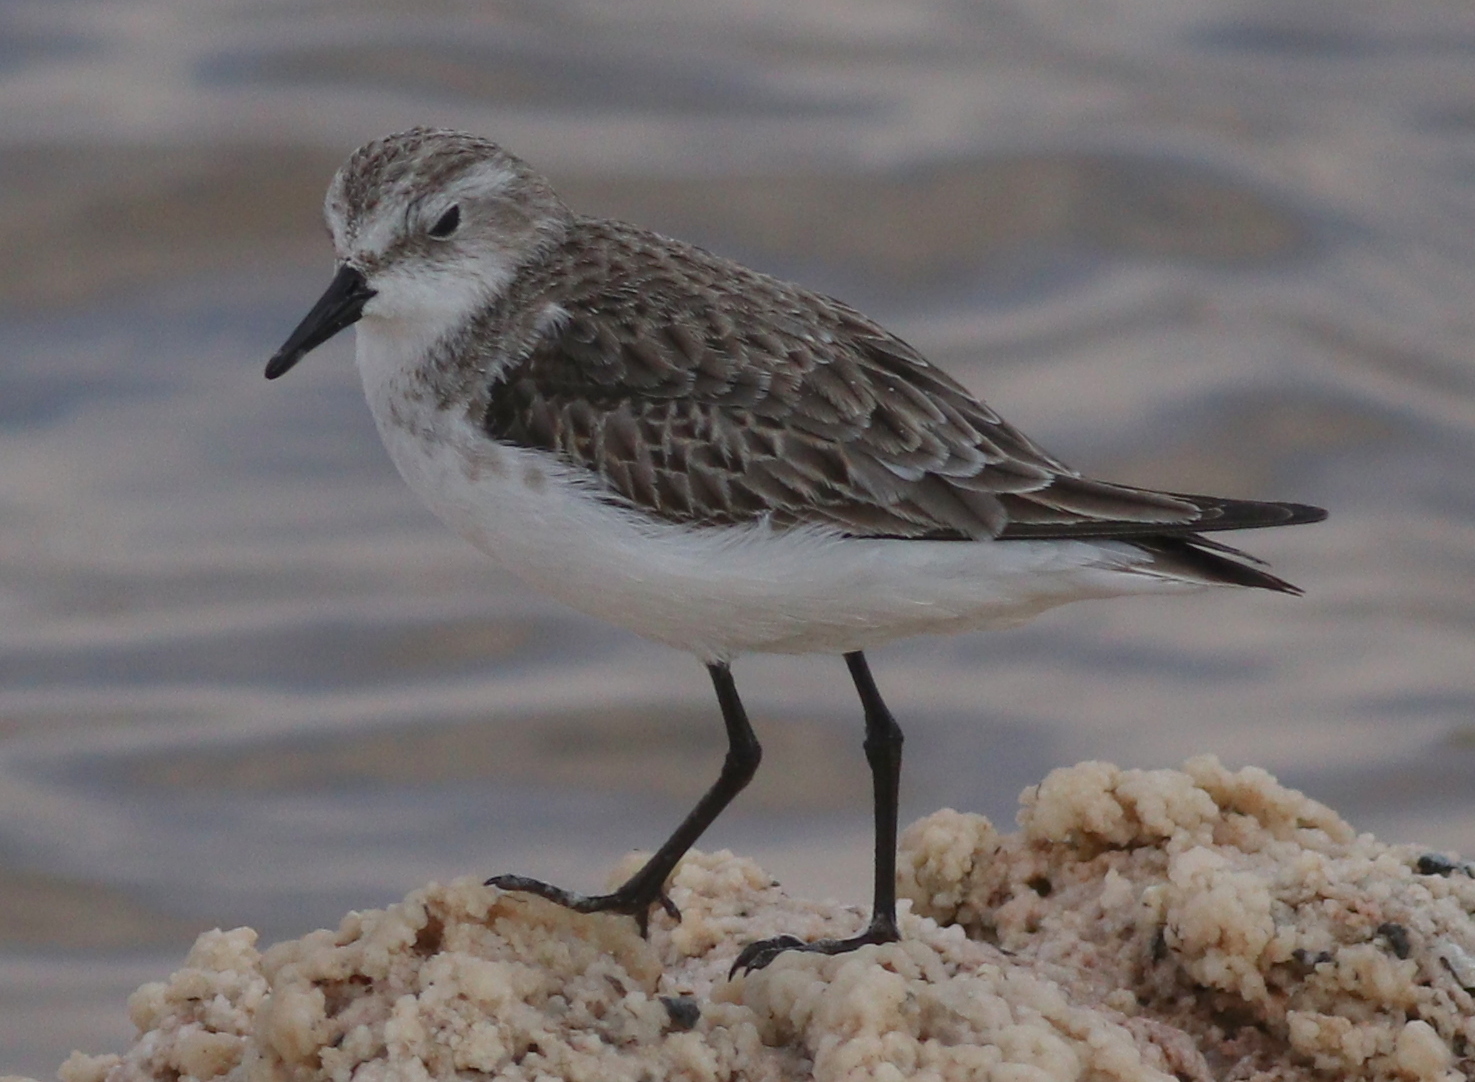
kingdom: Animalia
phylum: Chordata
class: Aves
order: Charadriiformes
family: Scolopacidae
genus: Calidris
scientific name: Calidris minuta
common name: Little stint
